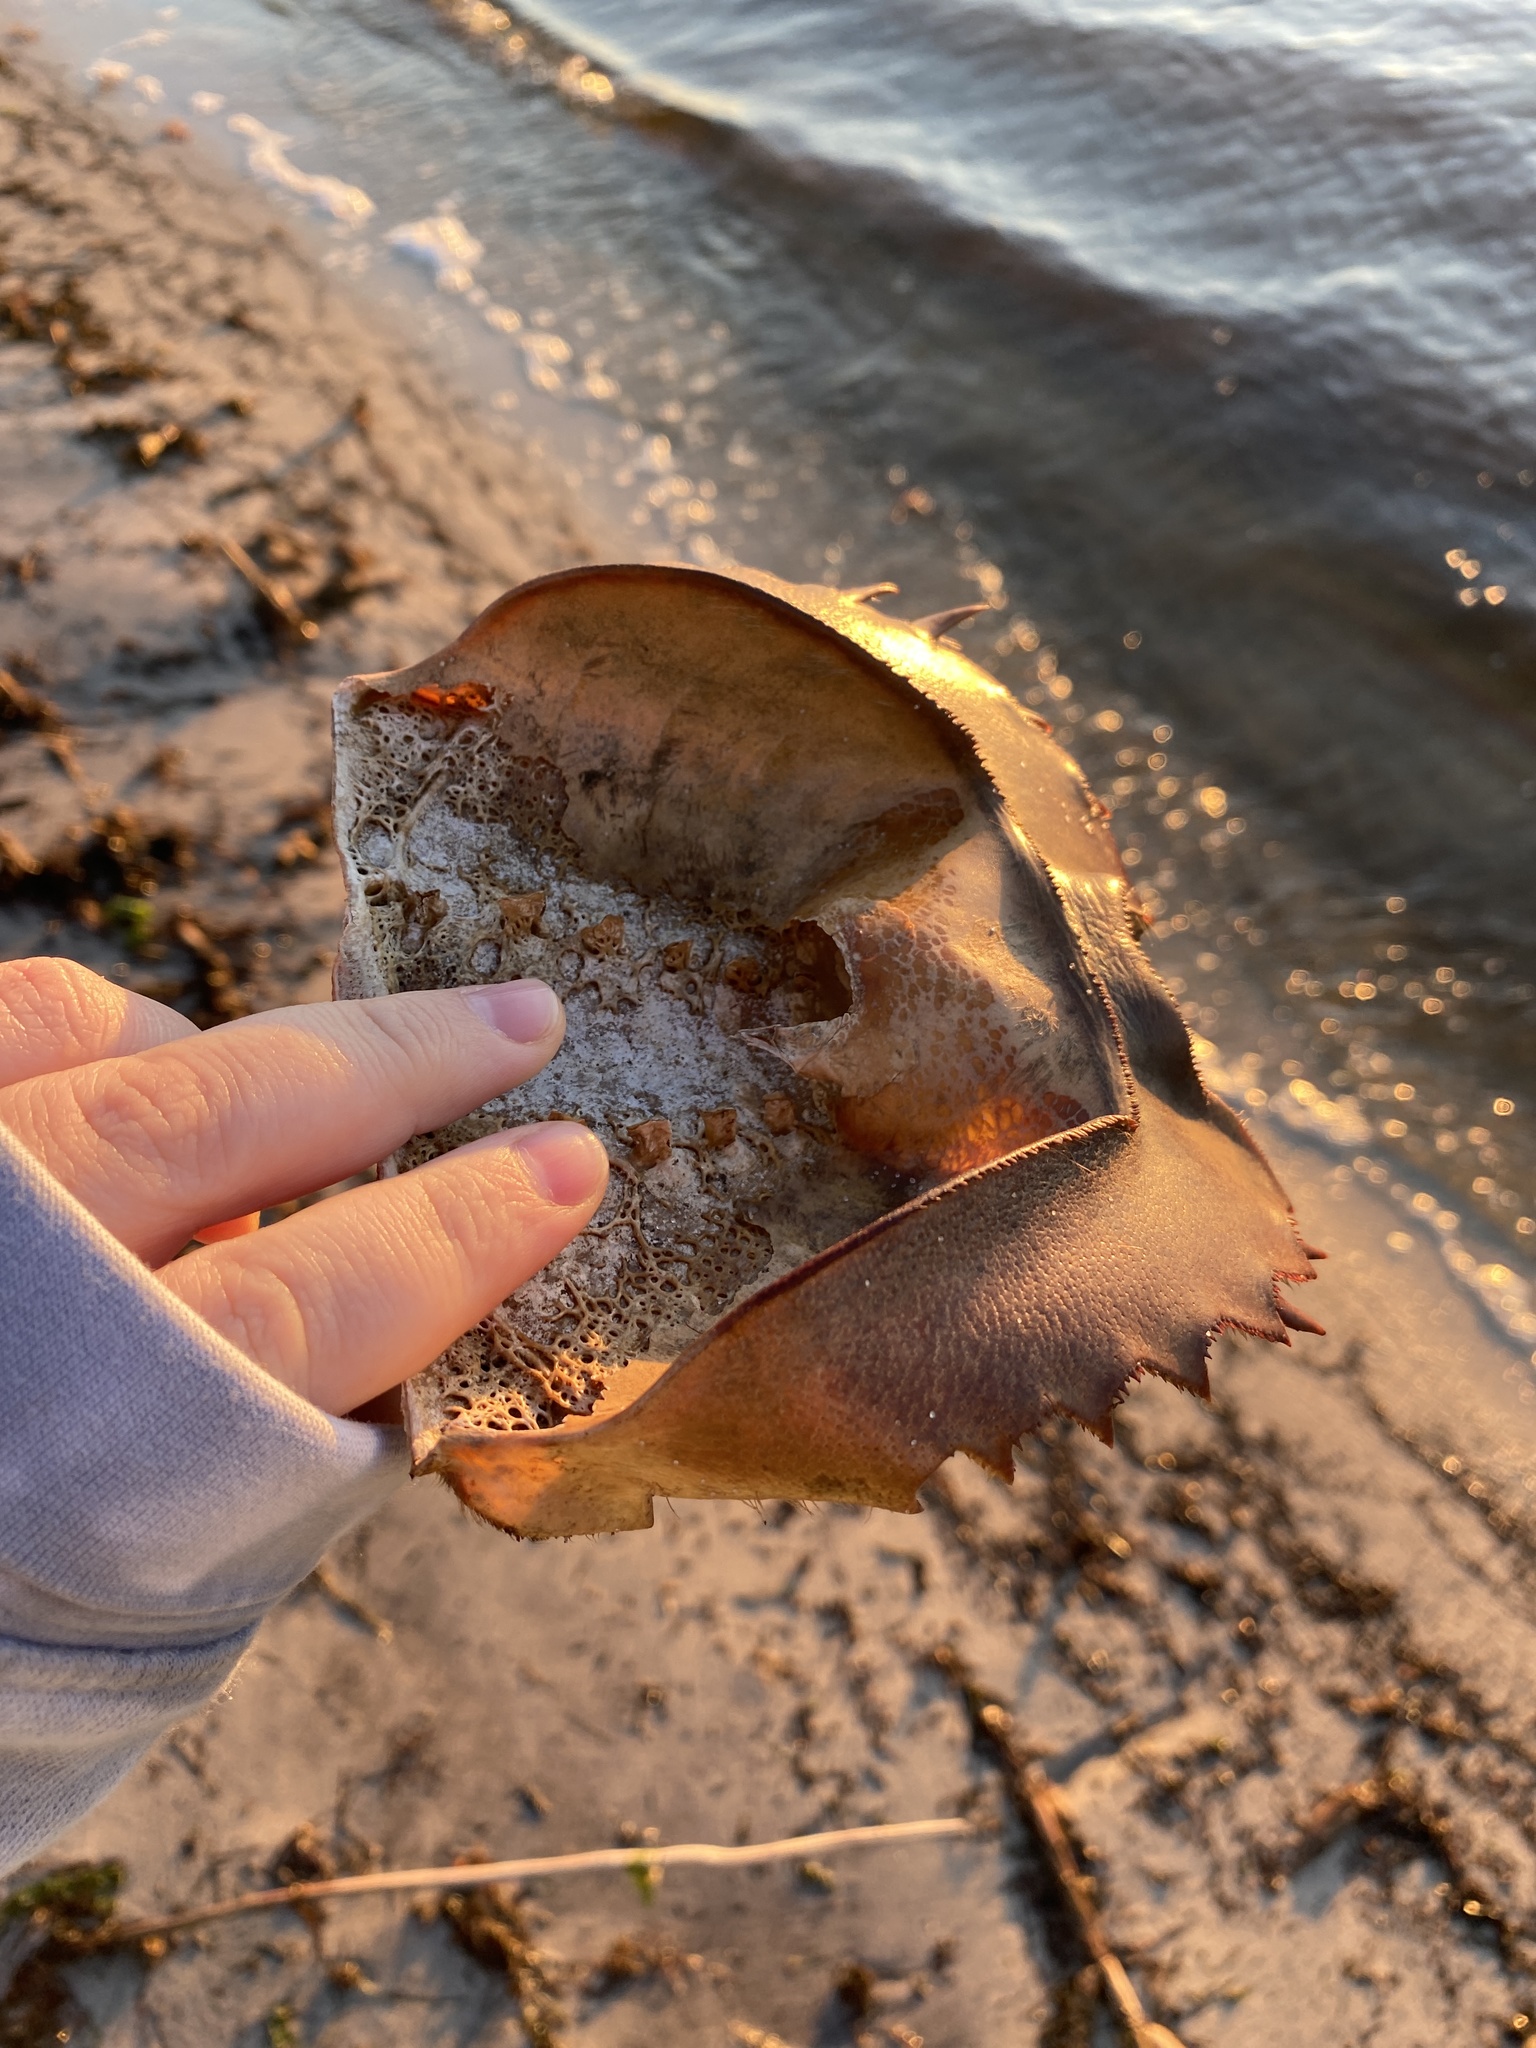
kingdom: Animalia
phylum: Arthropoda
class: Merostomata
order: Xiphosurida
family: Limulidae
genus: Limulus
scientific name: Limulus polyphemus
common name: Horseshoe crab
